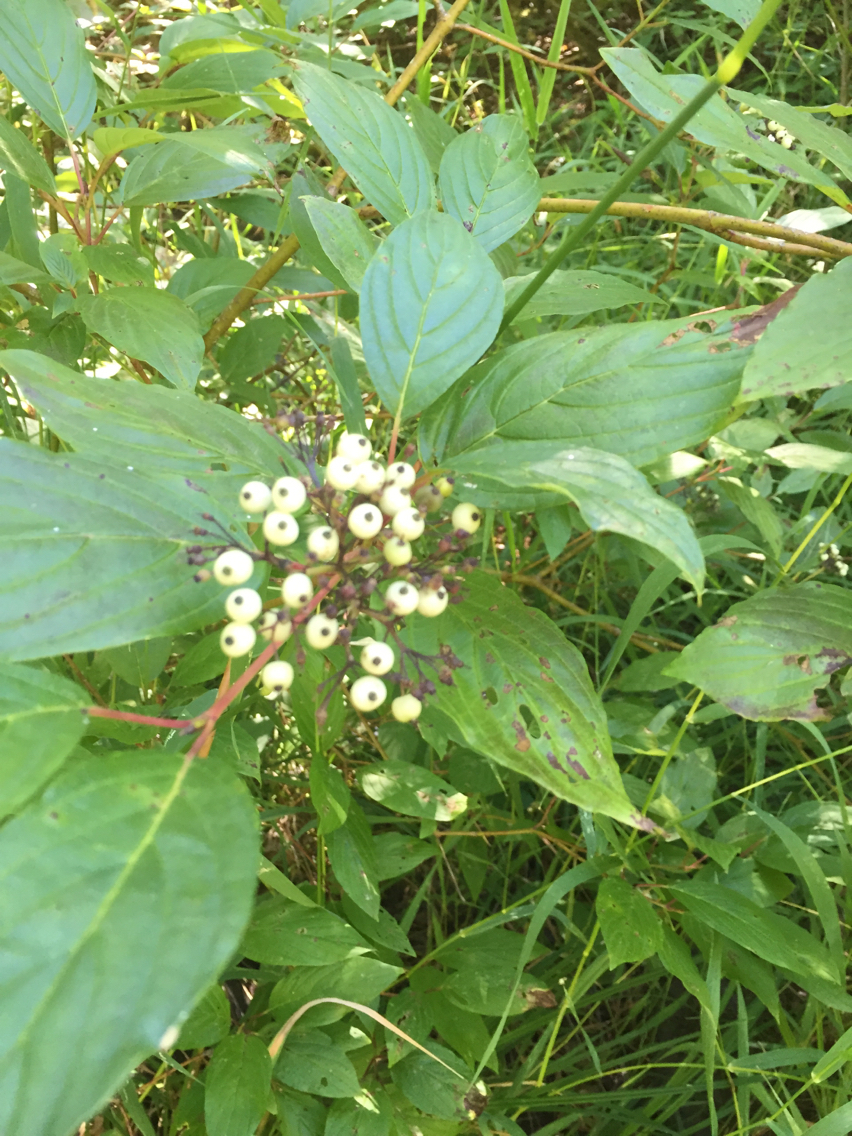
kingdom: Plantae
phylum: Tracheophyta
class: Magnoliopsida
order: Cornales
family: Cornaceae
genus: Cornus
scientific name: Cornus sericea
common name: Red-osier dogwood
